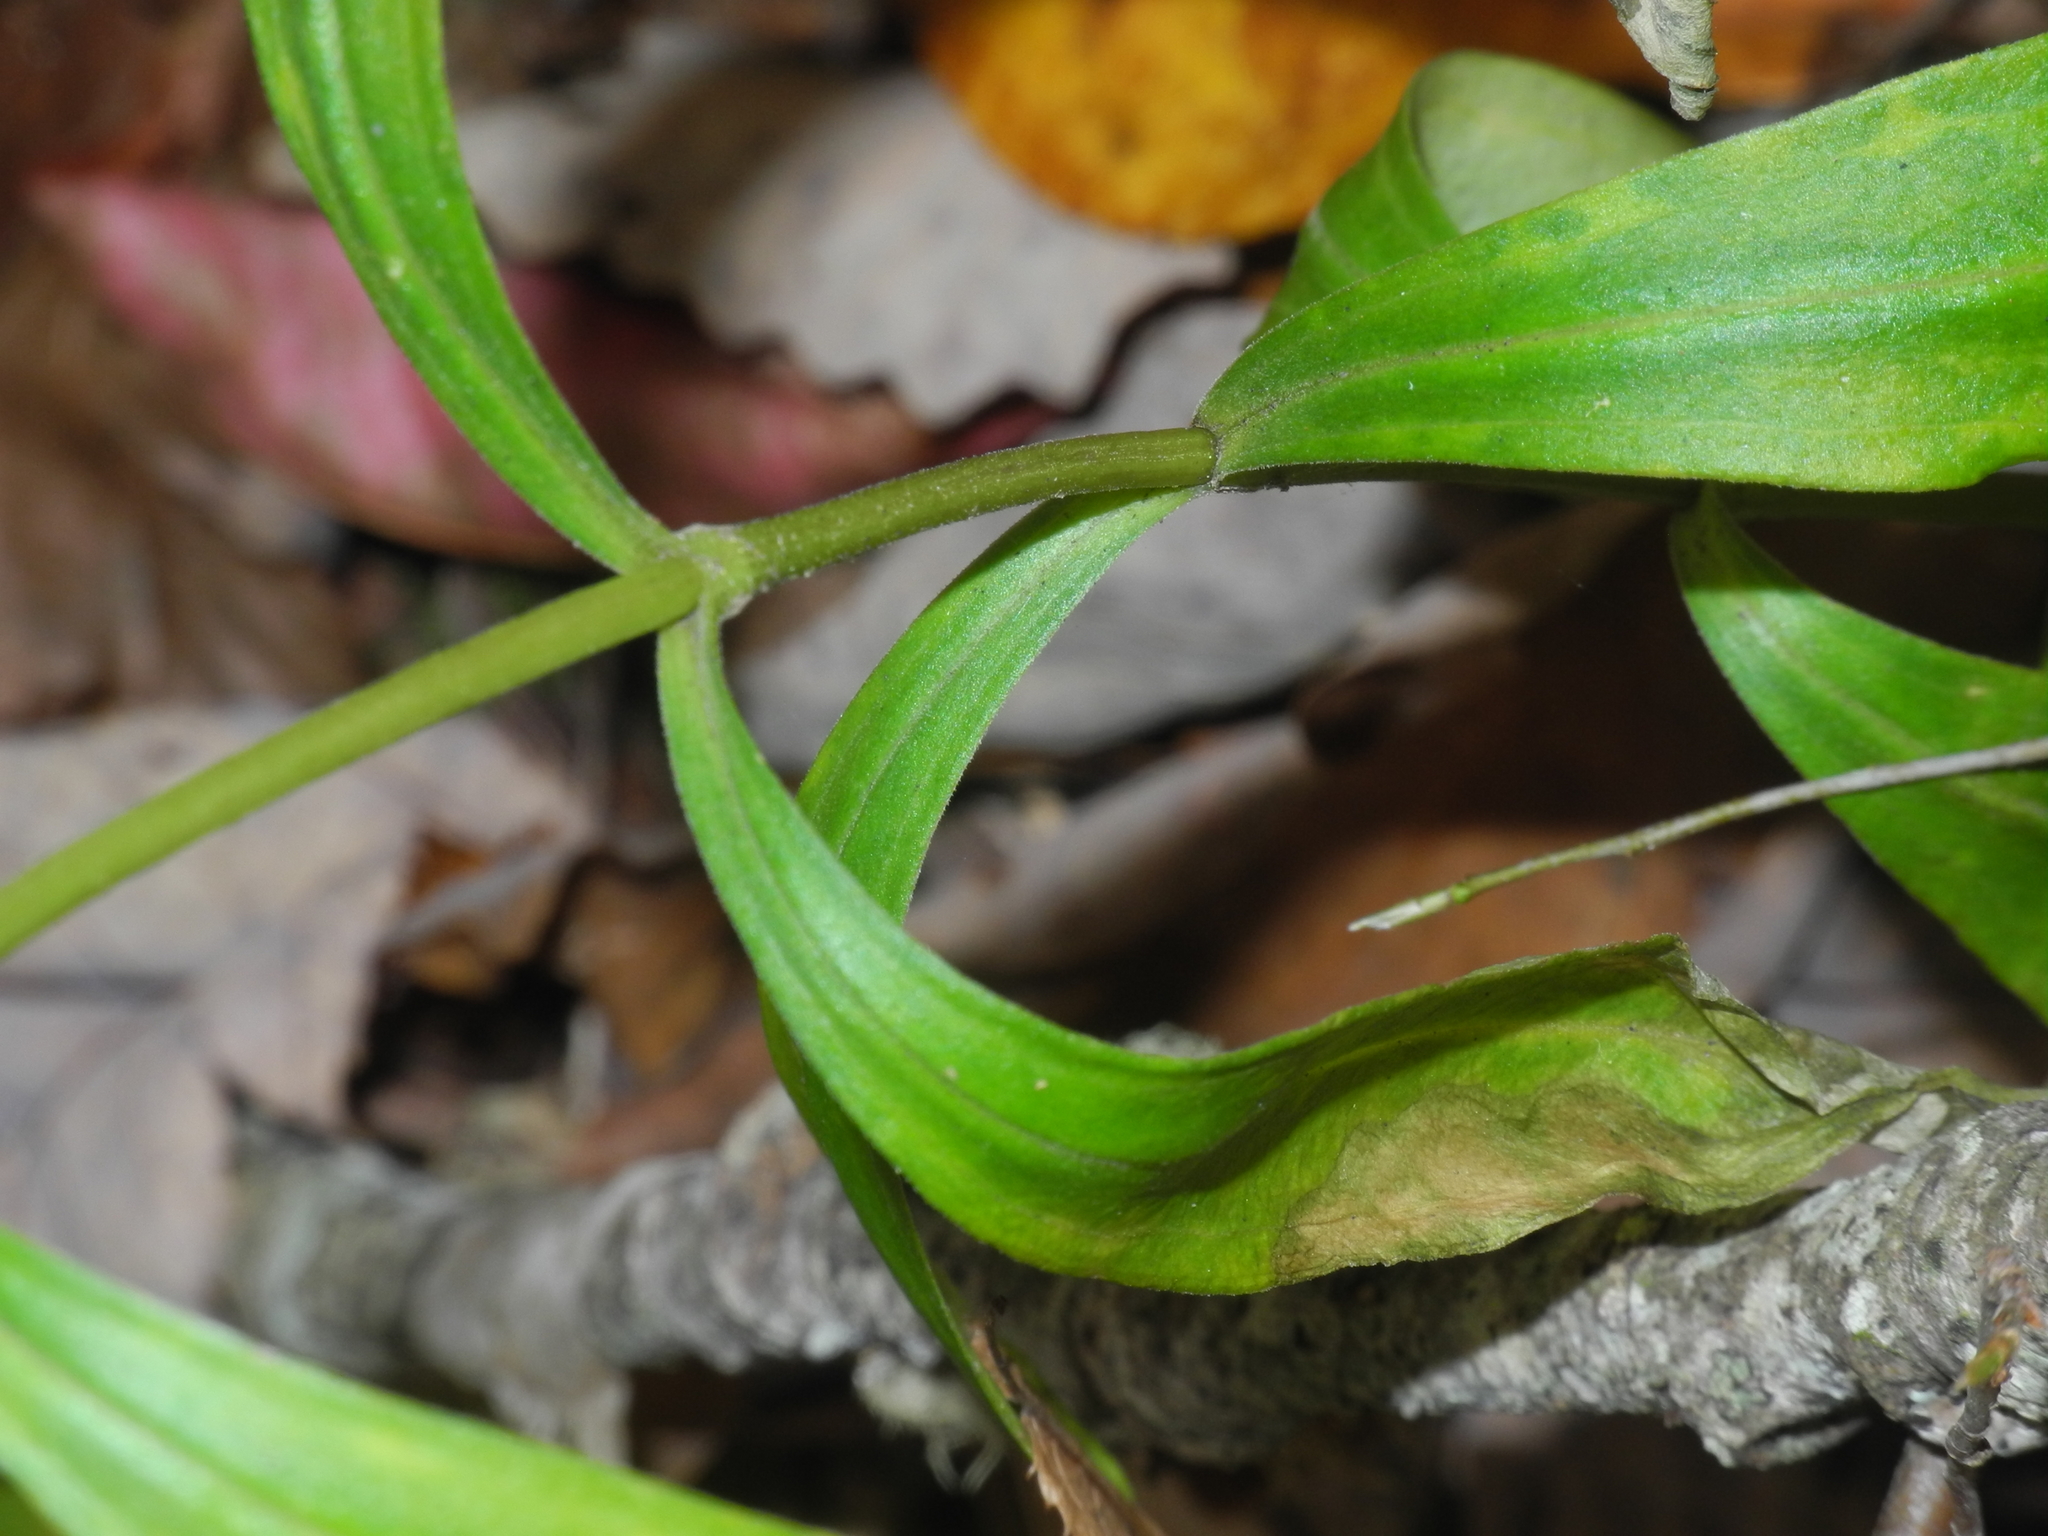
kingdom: Plantae
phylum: Tracheophyta
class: Magnoliopsida
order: Gentianales
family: Gentianaceae
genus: Gentiana
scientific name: Gentiana villosa
